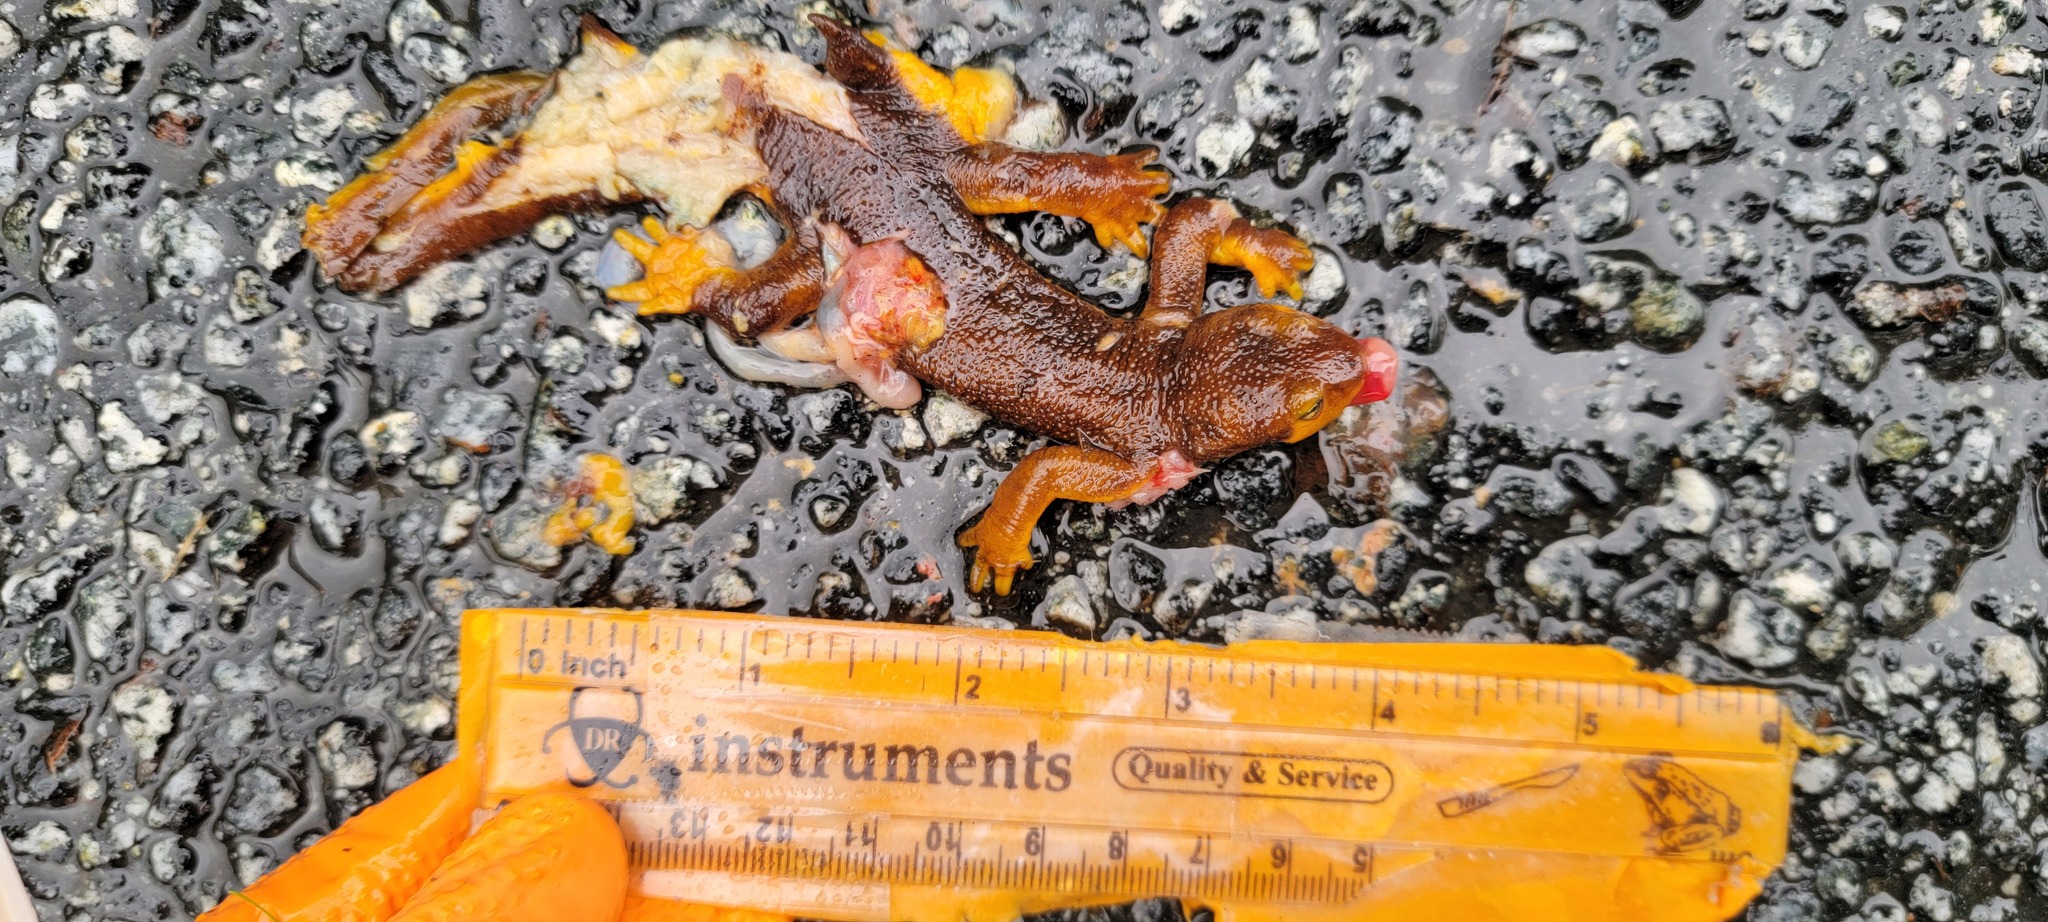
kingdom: Animalia
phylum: Chordata
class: Amphibia
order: Caudata
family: Salamandridae
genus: Taricha
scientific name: Taricha
